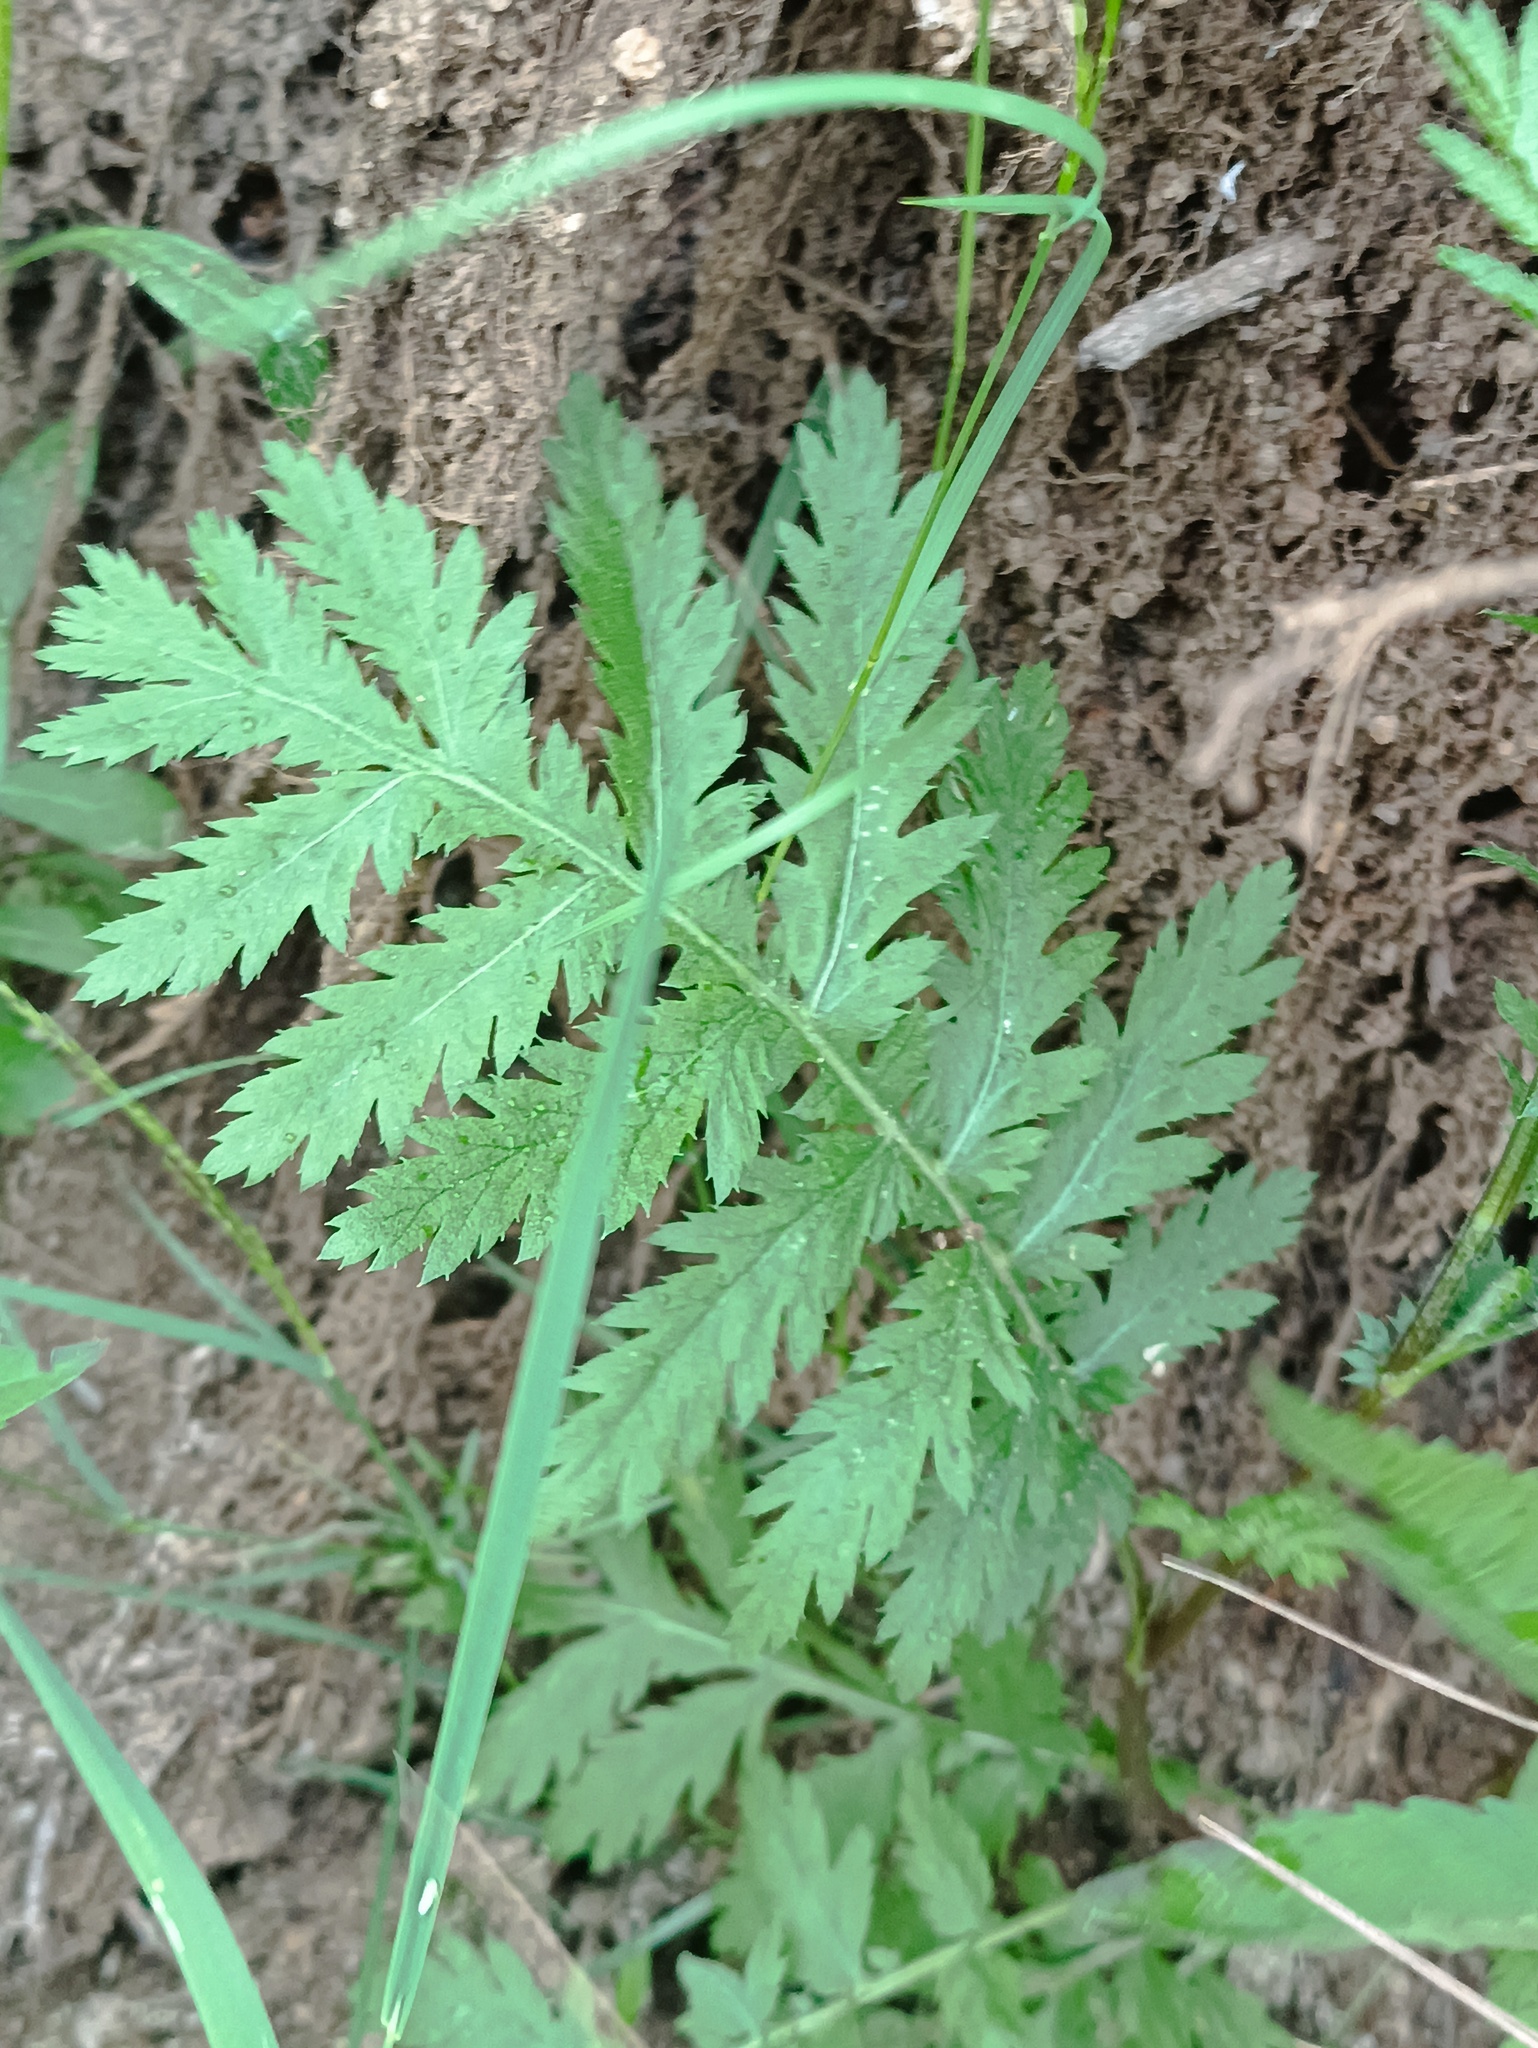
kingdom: Plantae
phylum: Tracheophyta
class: Magnoliopsida
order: Asterales
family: Asteraceae
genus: Tanacetum
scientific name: Tanacetum vulgare
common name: Common tansy
